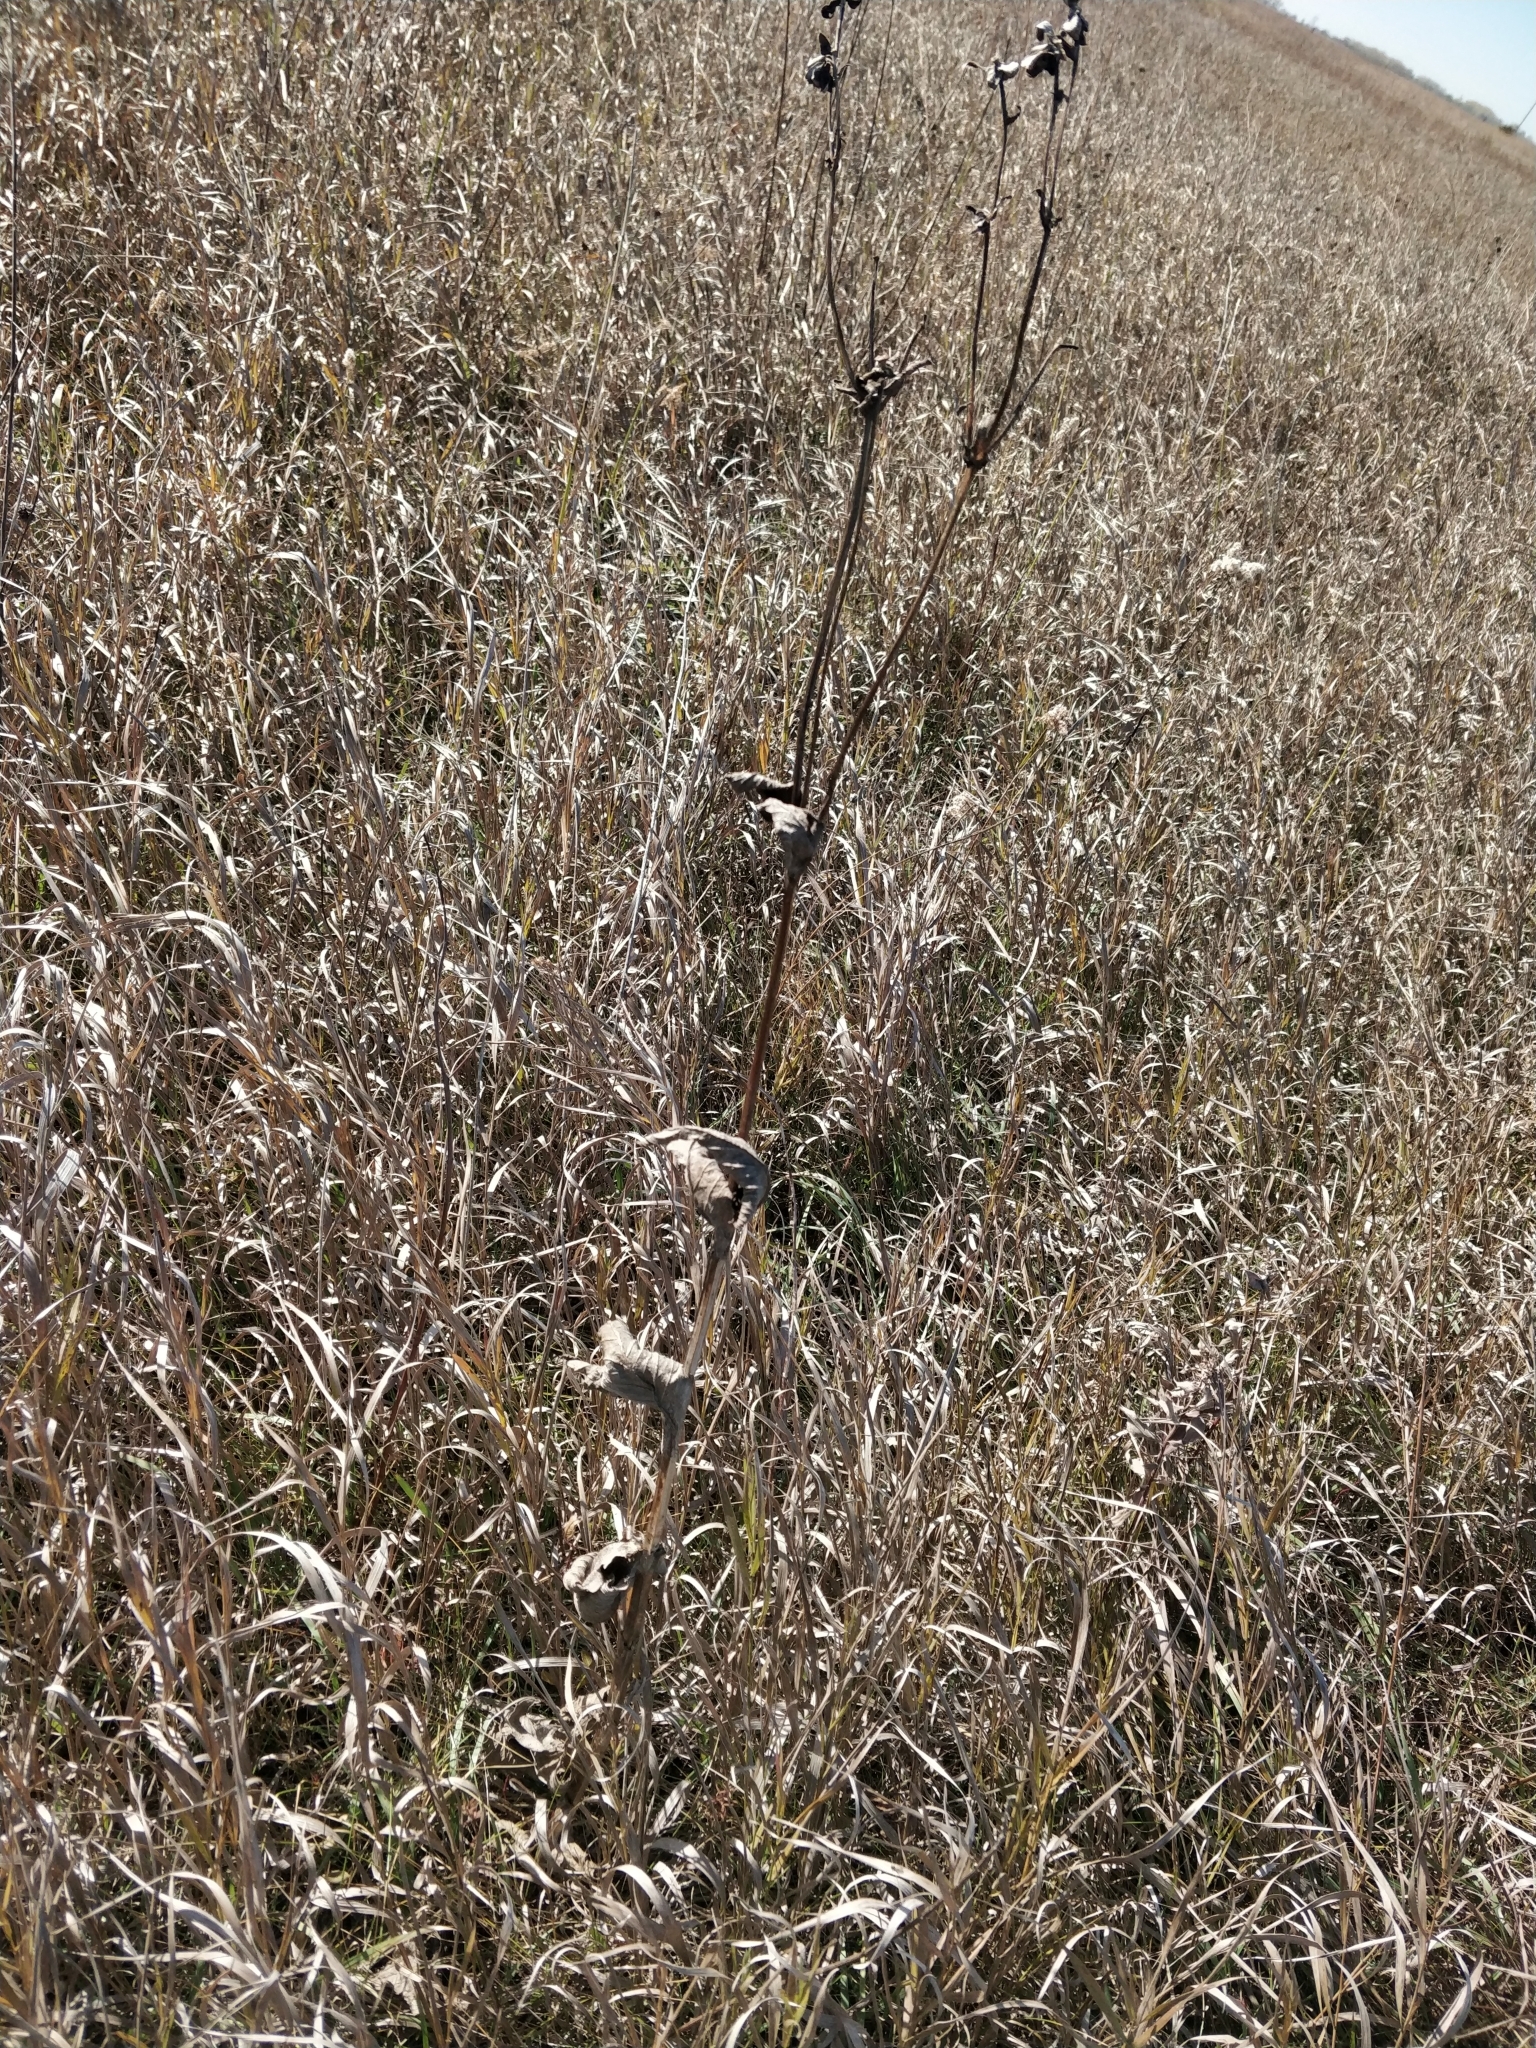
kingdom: Plantae
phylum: Tracheophyta
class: Magnoliopsida
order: Asterales
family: Asteraceae
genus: Silphium
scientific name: Silphium perfoliatum
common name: Cup-plant
